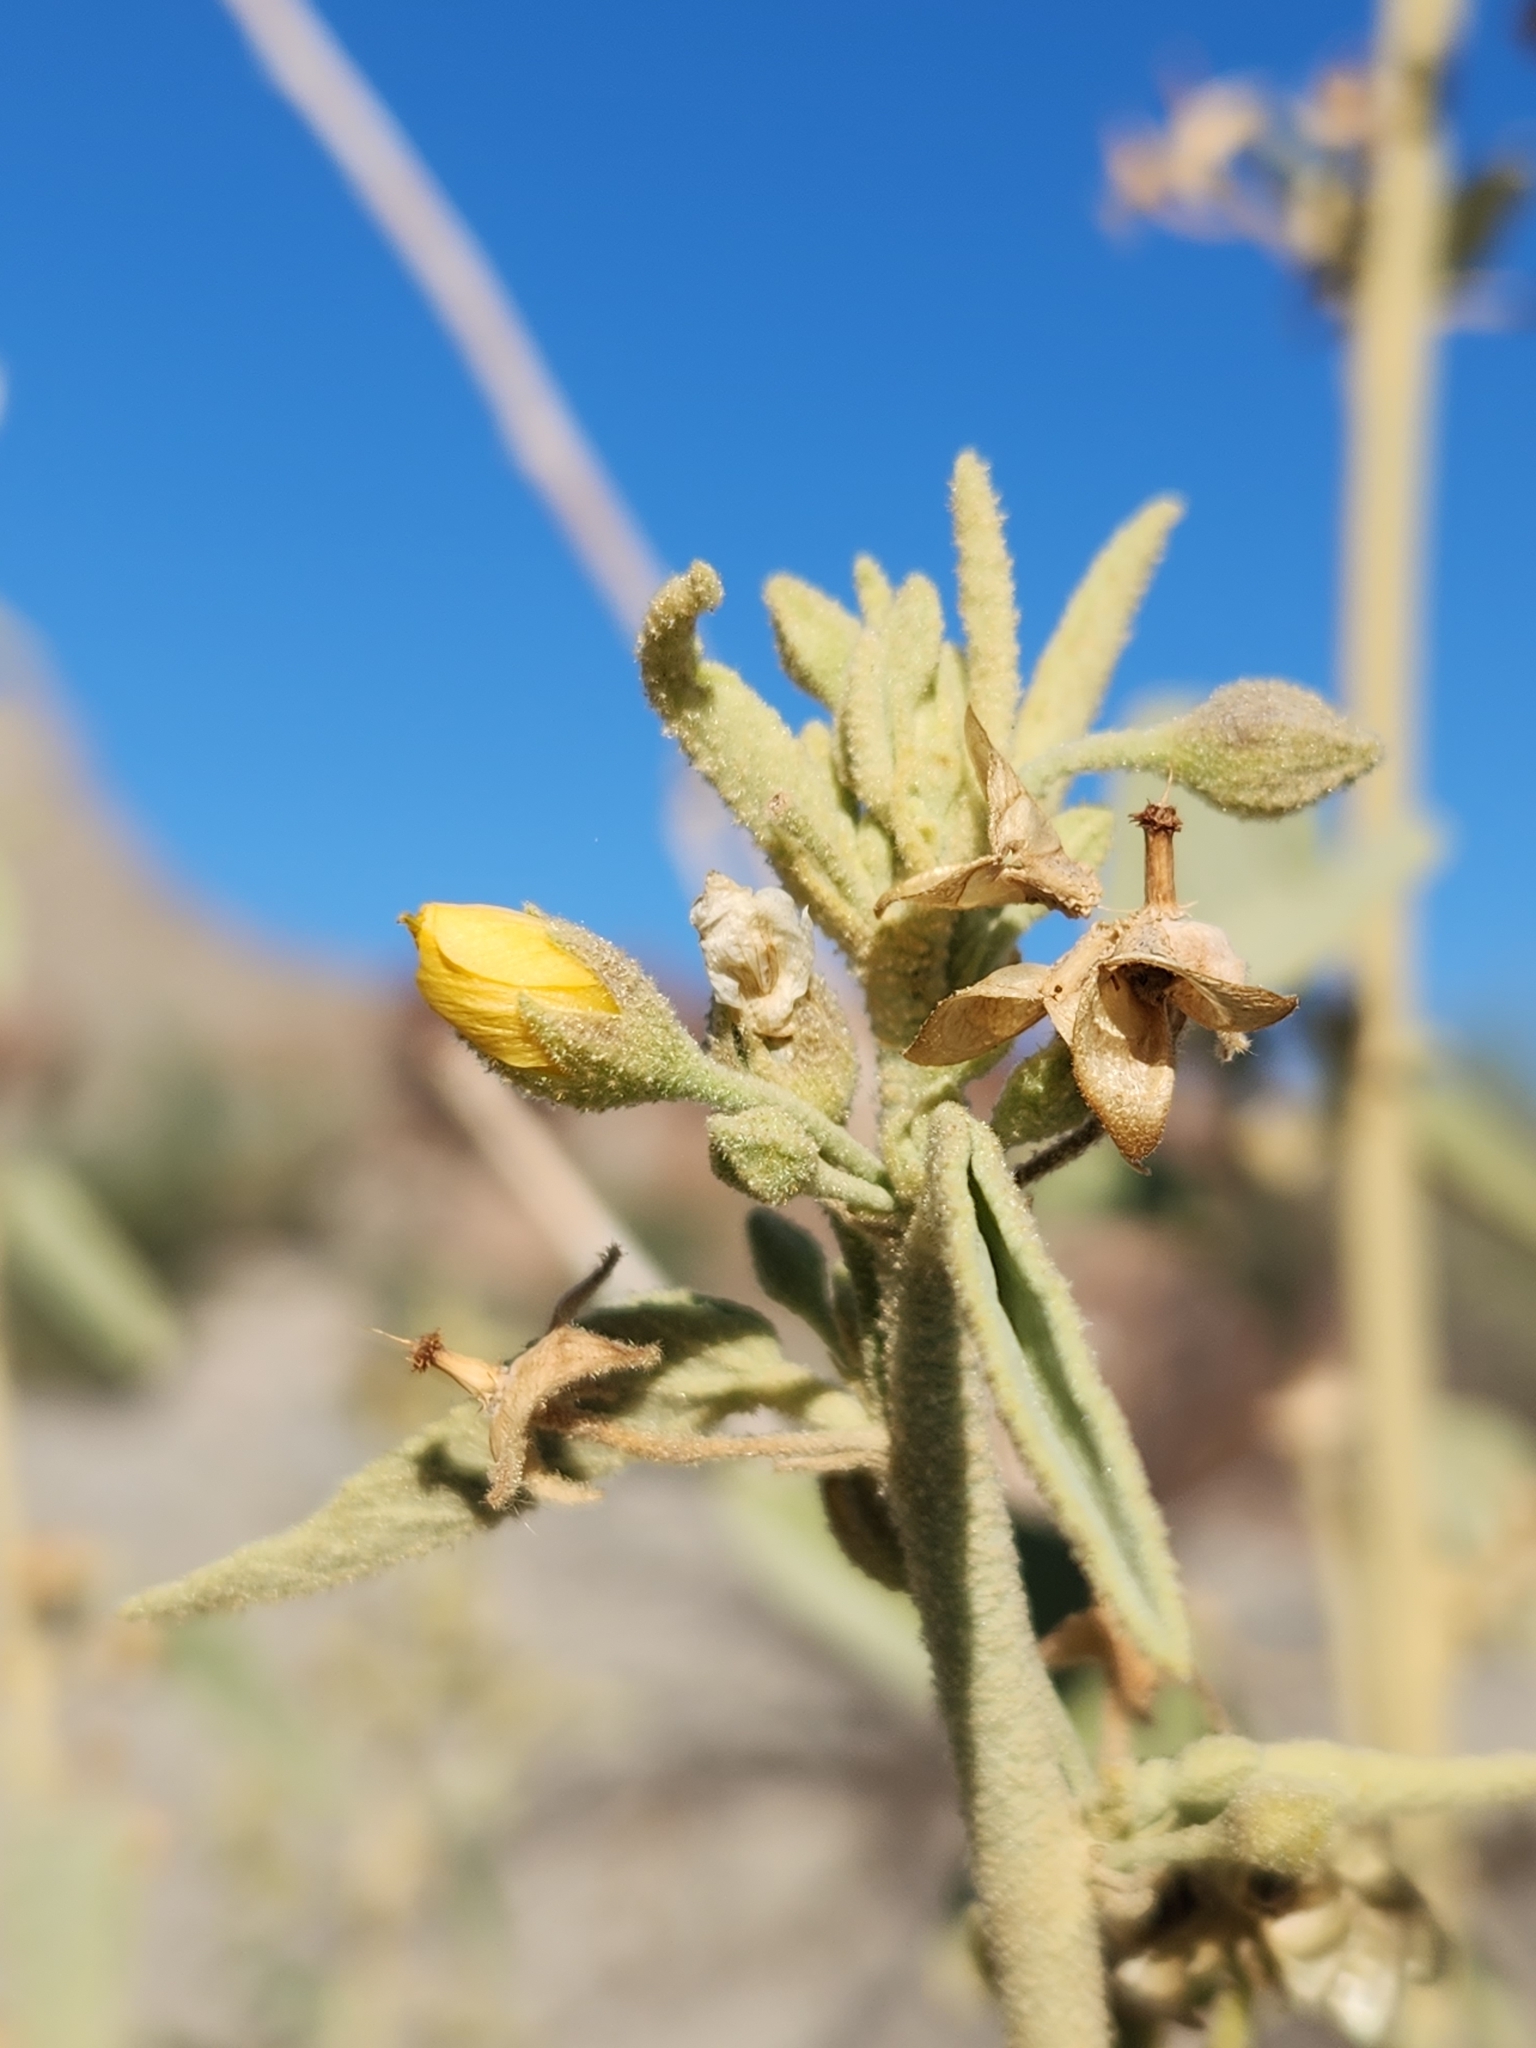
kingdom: Plantae
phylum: Tracheophyta
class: Magnoliopsida
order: Malvales
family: Malvaceae
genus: Horsfordia
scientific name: Horsfordia newberryi
